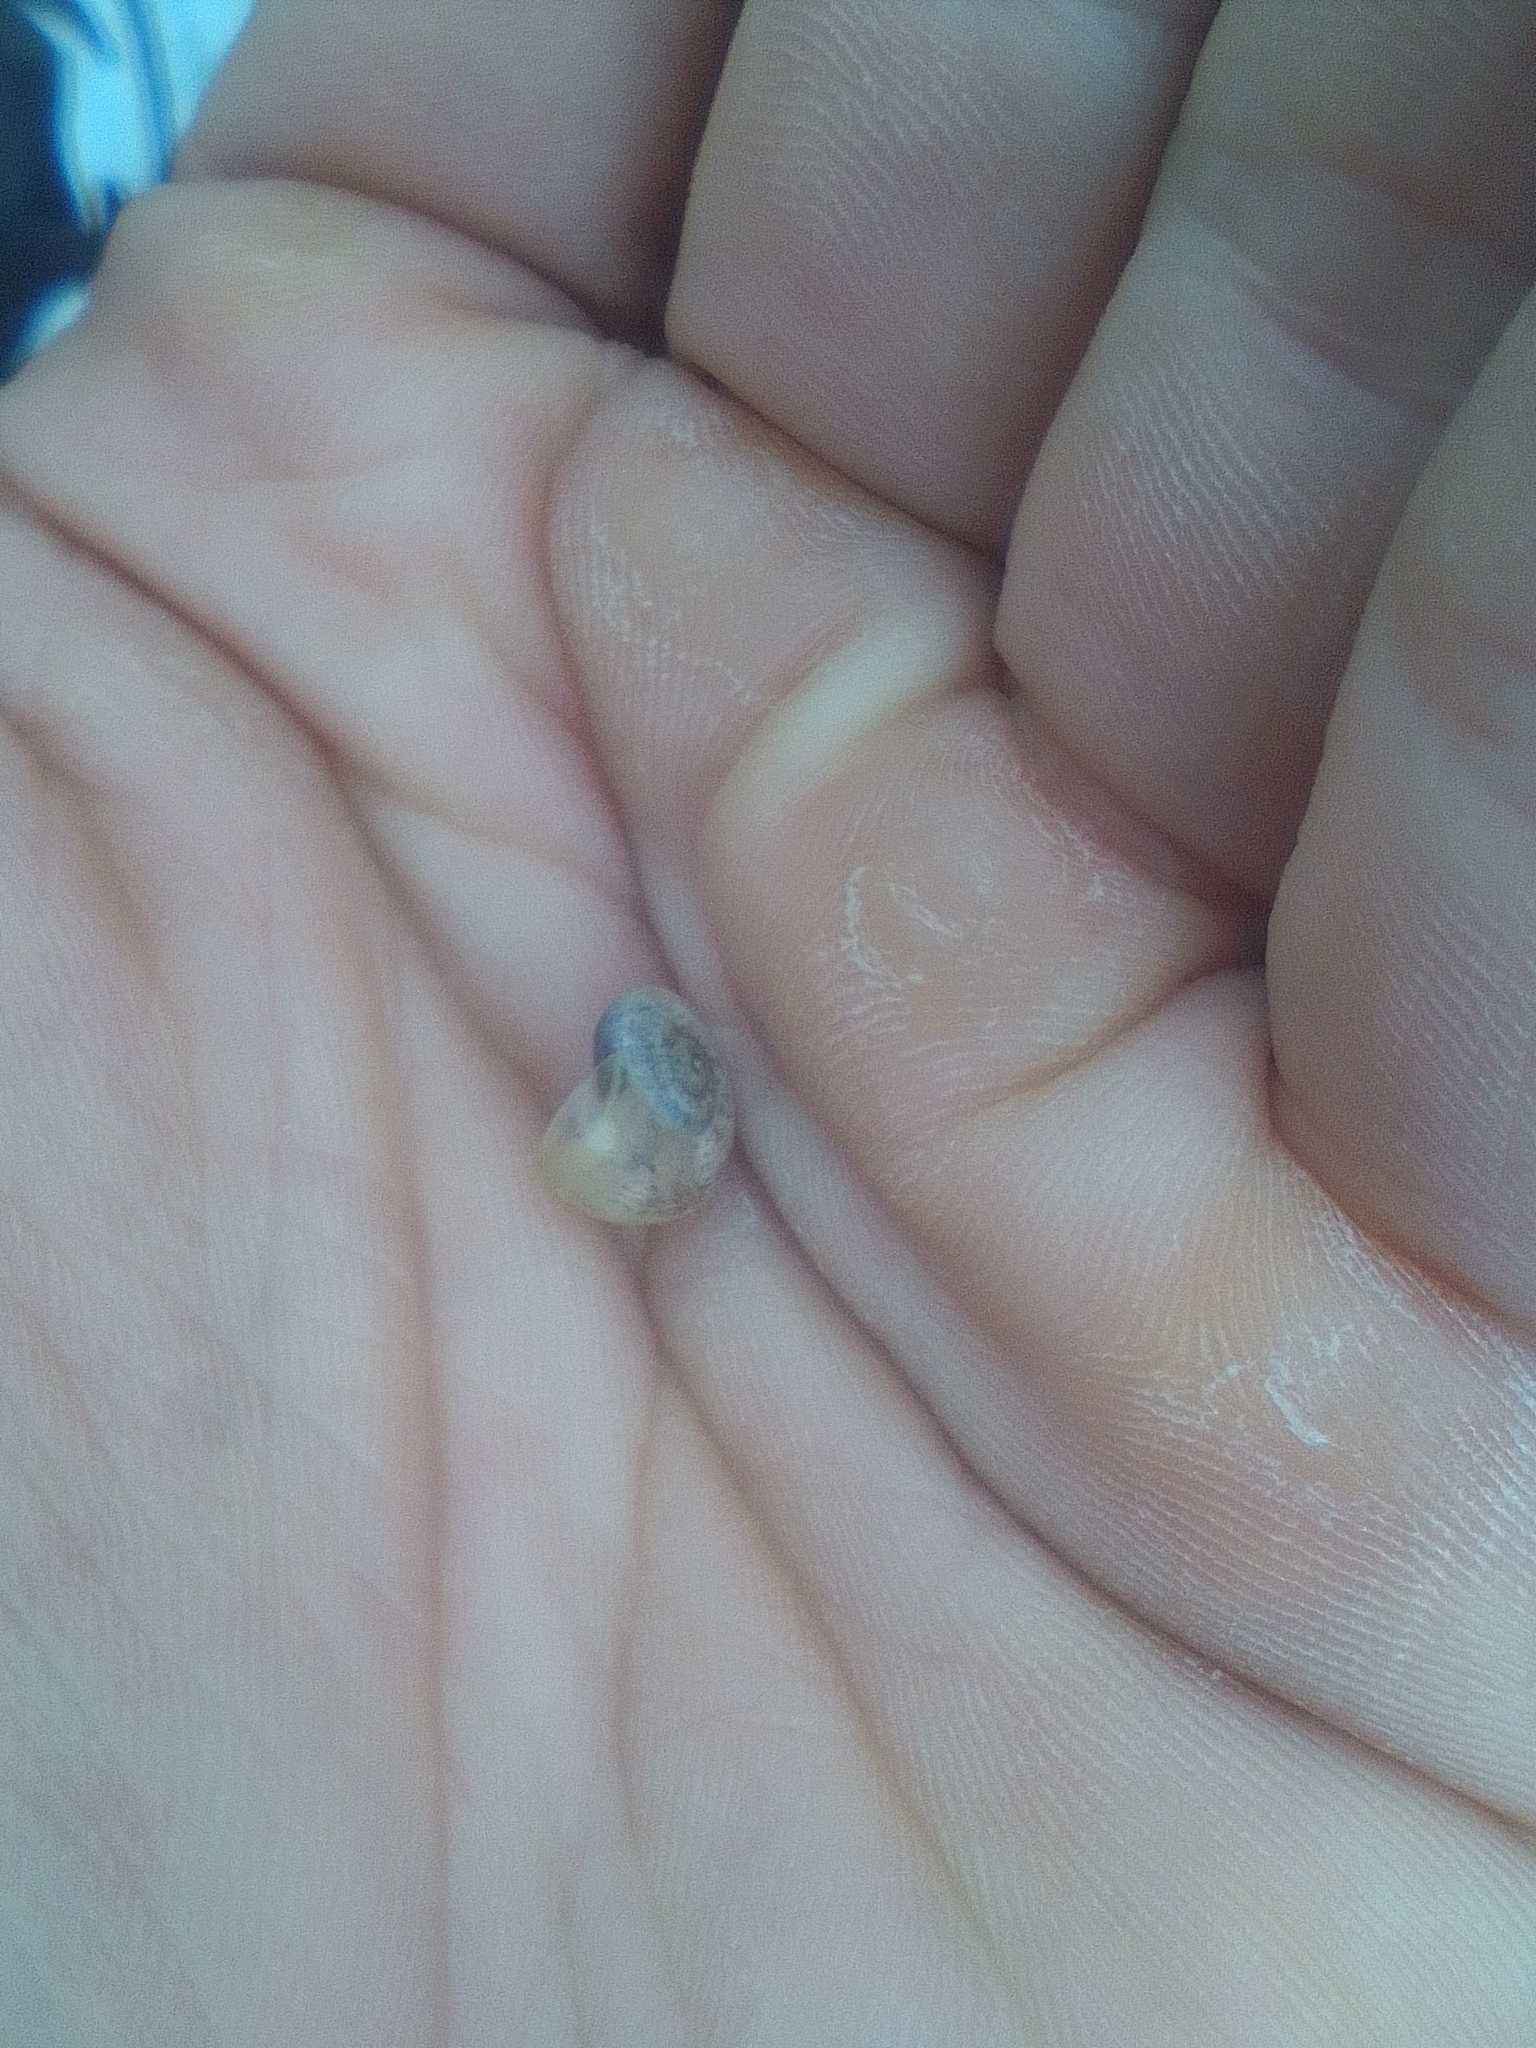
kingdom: Animalia
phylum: Mollusca
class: Gastropoda
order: Stylommatophora
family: Helicidae
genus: Eobania
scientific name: Eobania vermiculata
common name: Chocolateband snail
